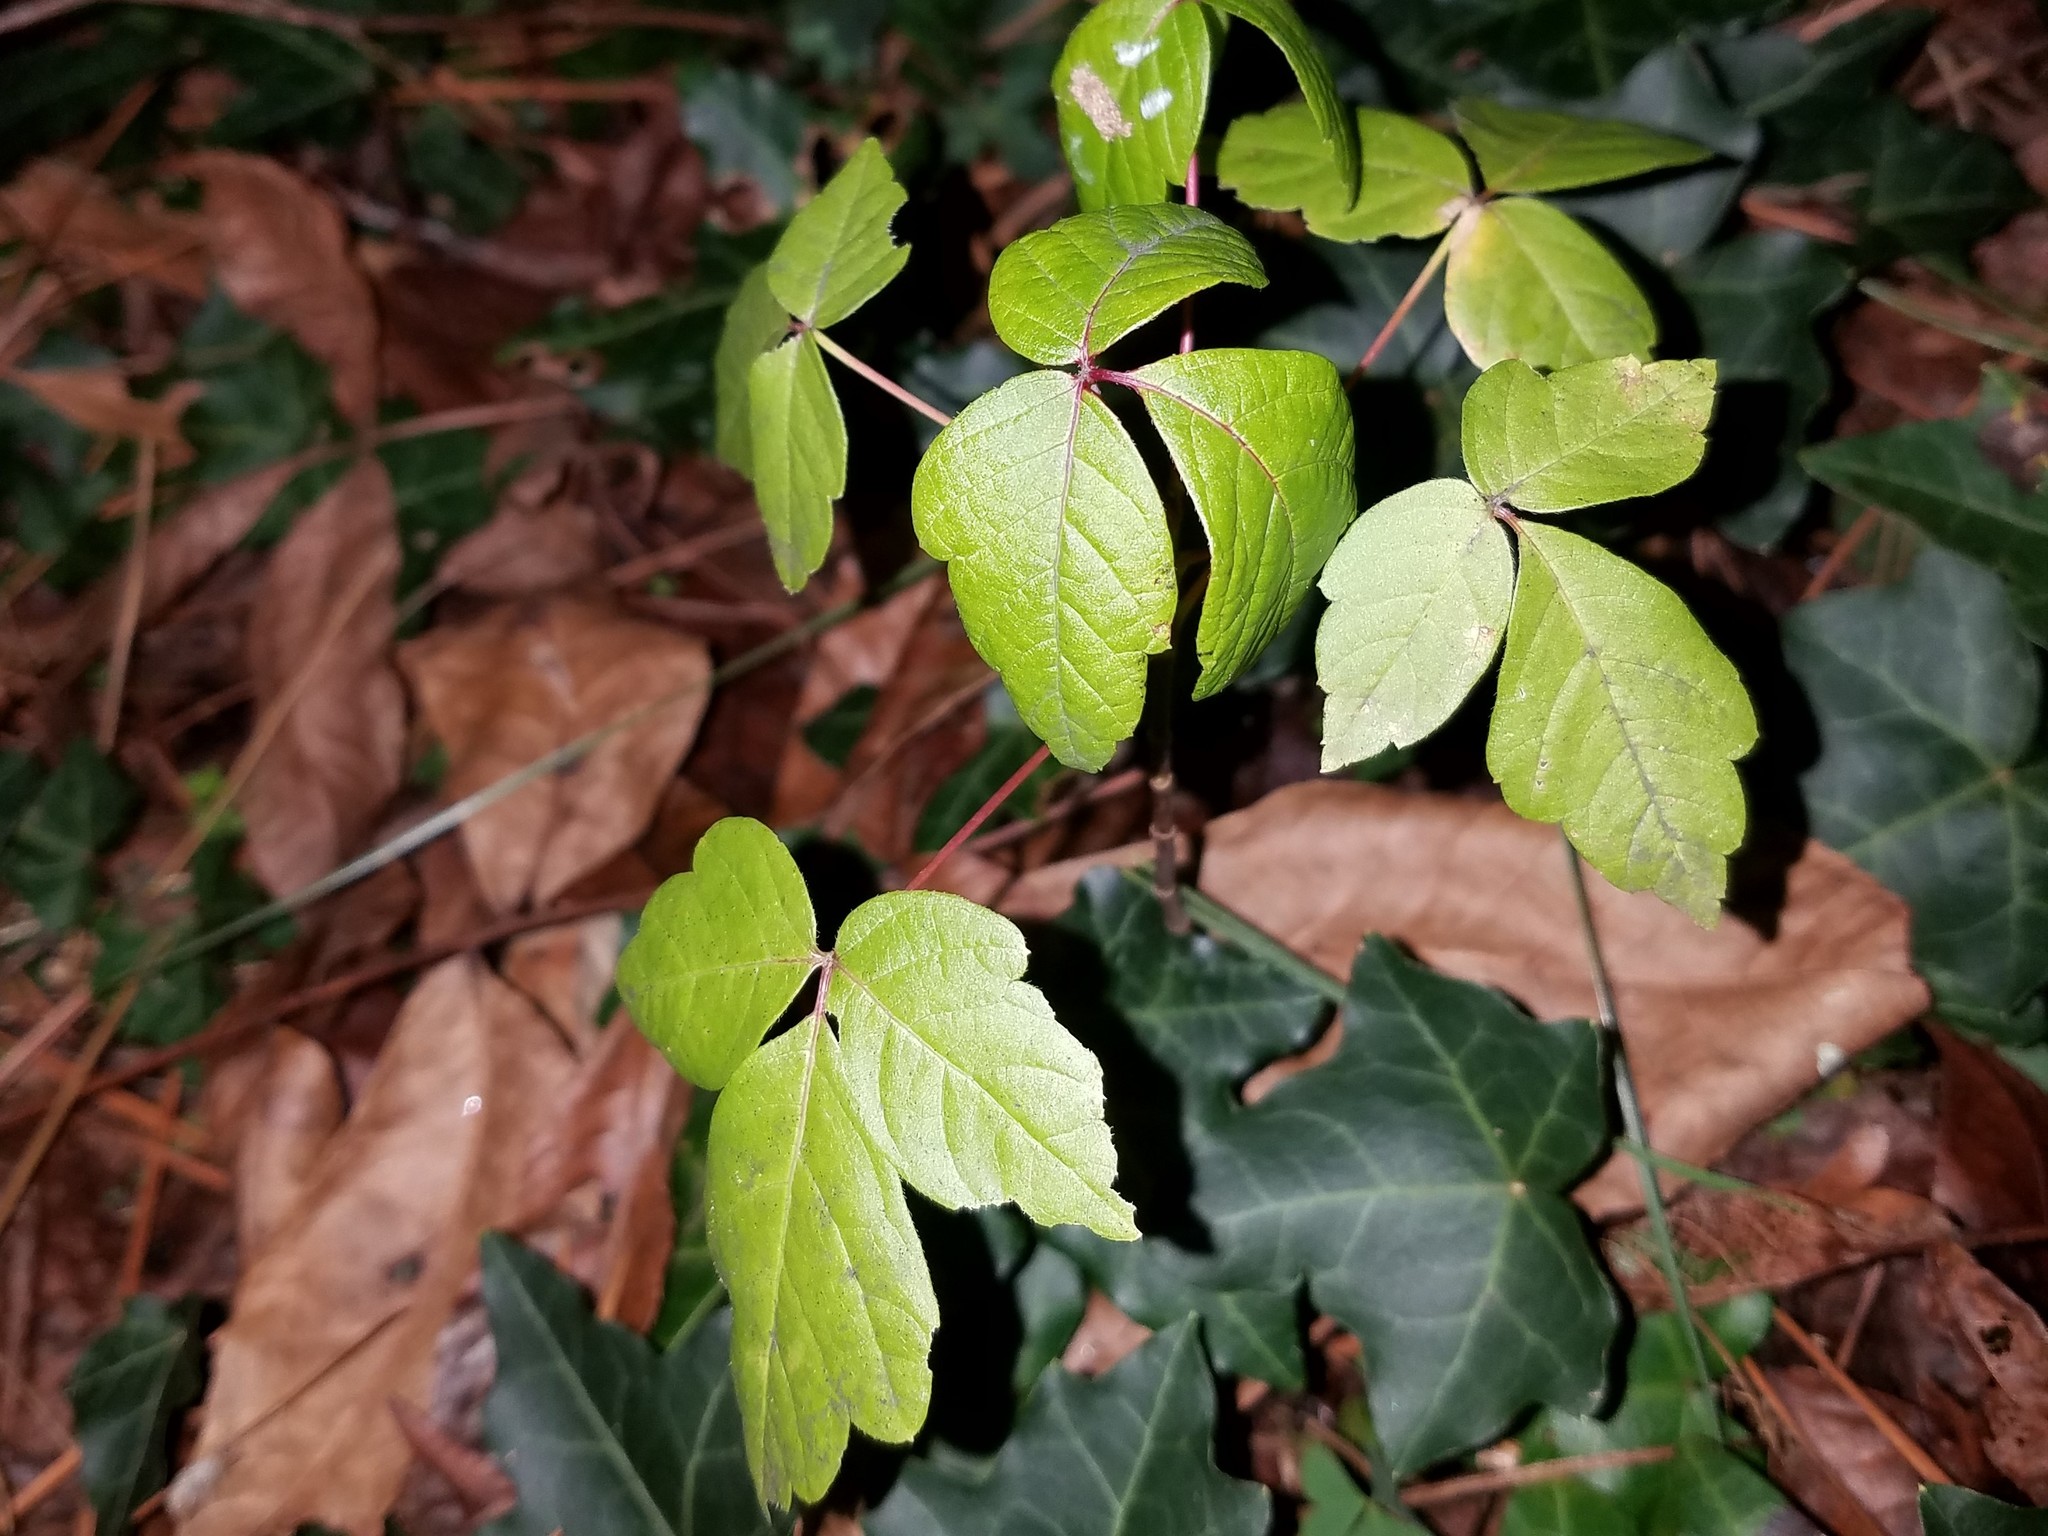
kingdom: Plantae
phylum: Tracheophyta
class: Magnoliopsida
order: Sapindales
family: Anacardiaceae
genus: Toxicodendron
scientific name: Toxicodendron radicans
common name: Poison ivy
